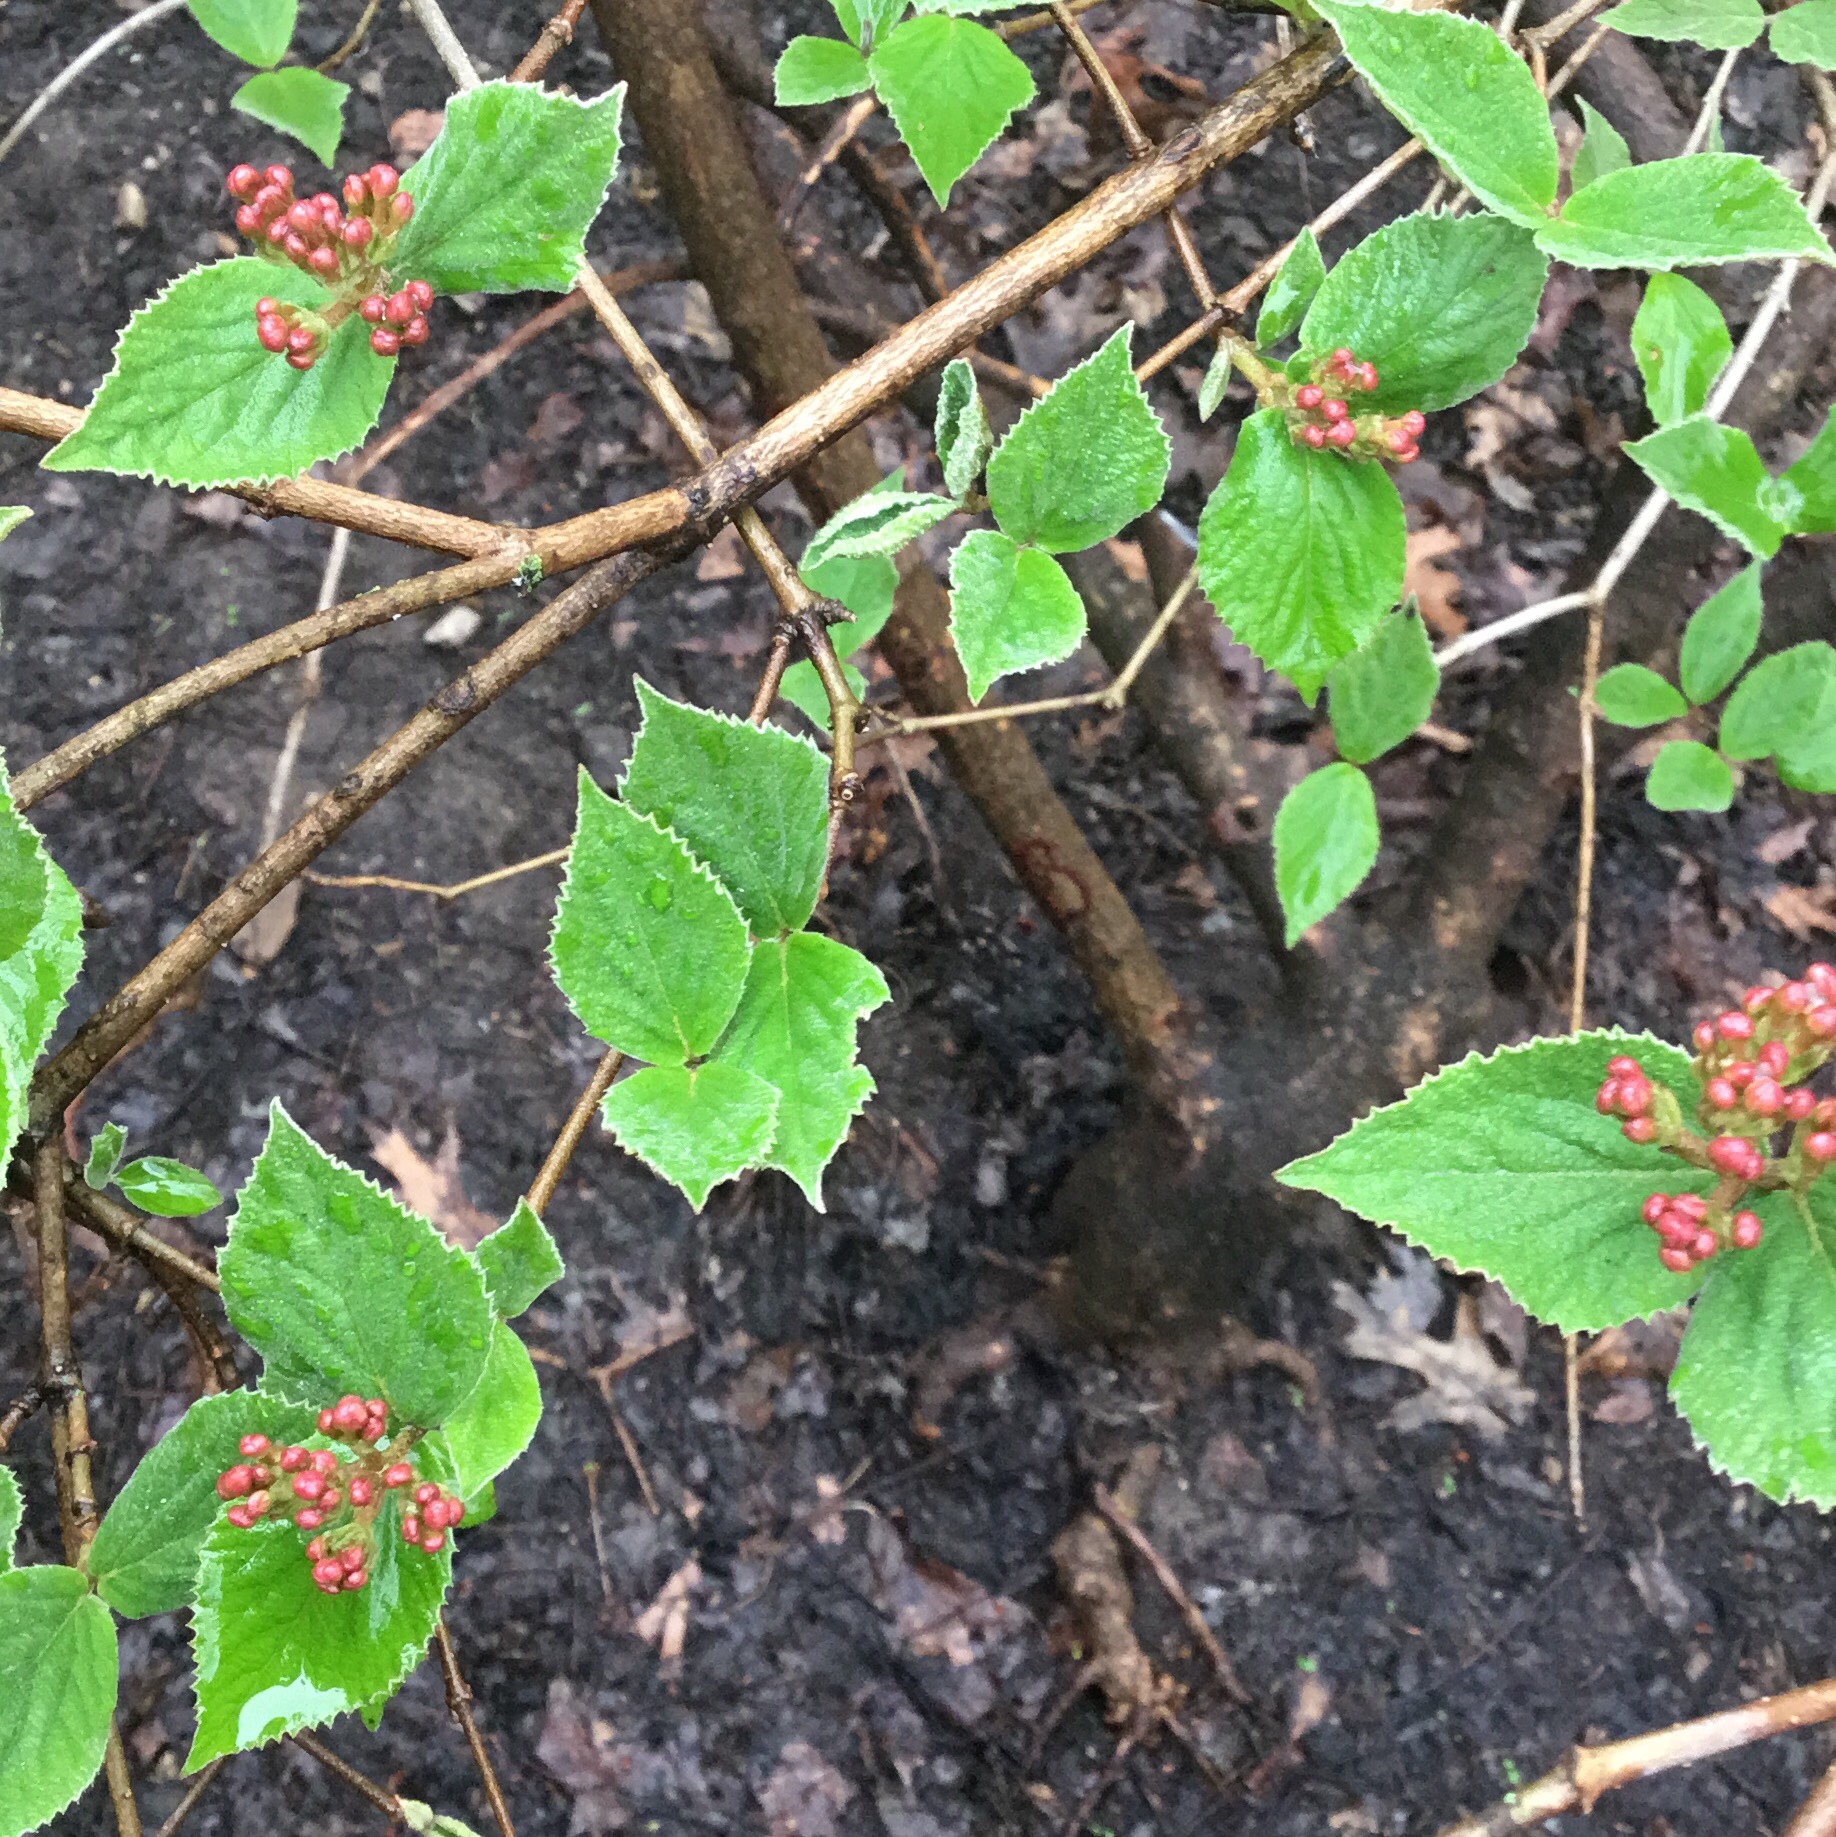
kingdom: Plantae
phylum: Tracheophyta
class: Magnoliopsida
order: Dipsacales
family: Viburnaceae
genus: Viburnum
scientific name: Viburnum carlesii
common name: Koreanspice viburnum
